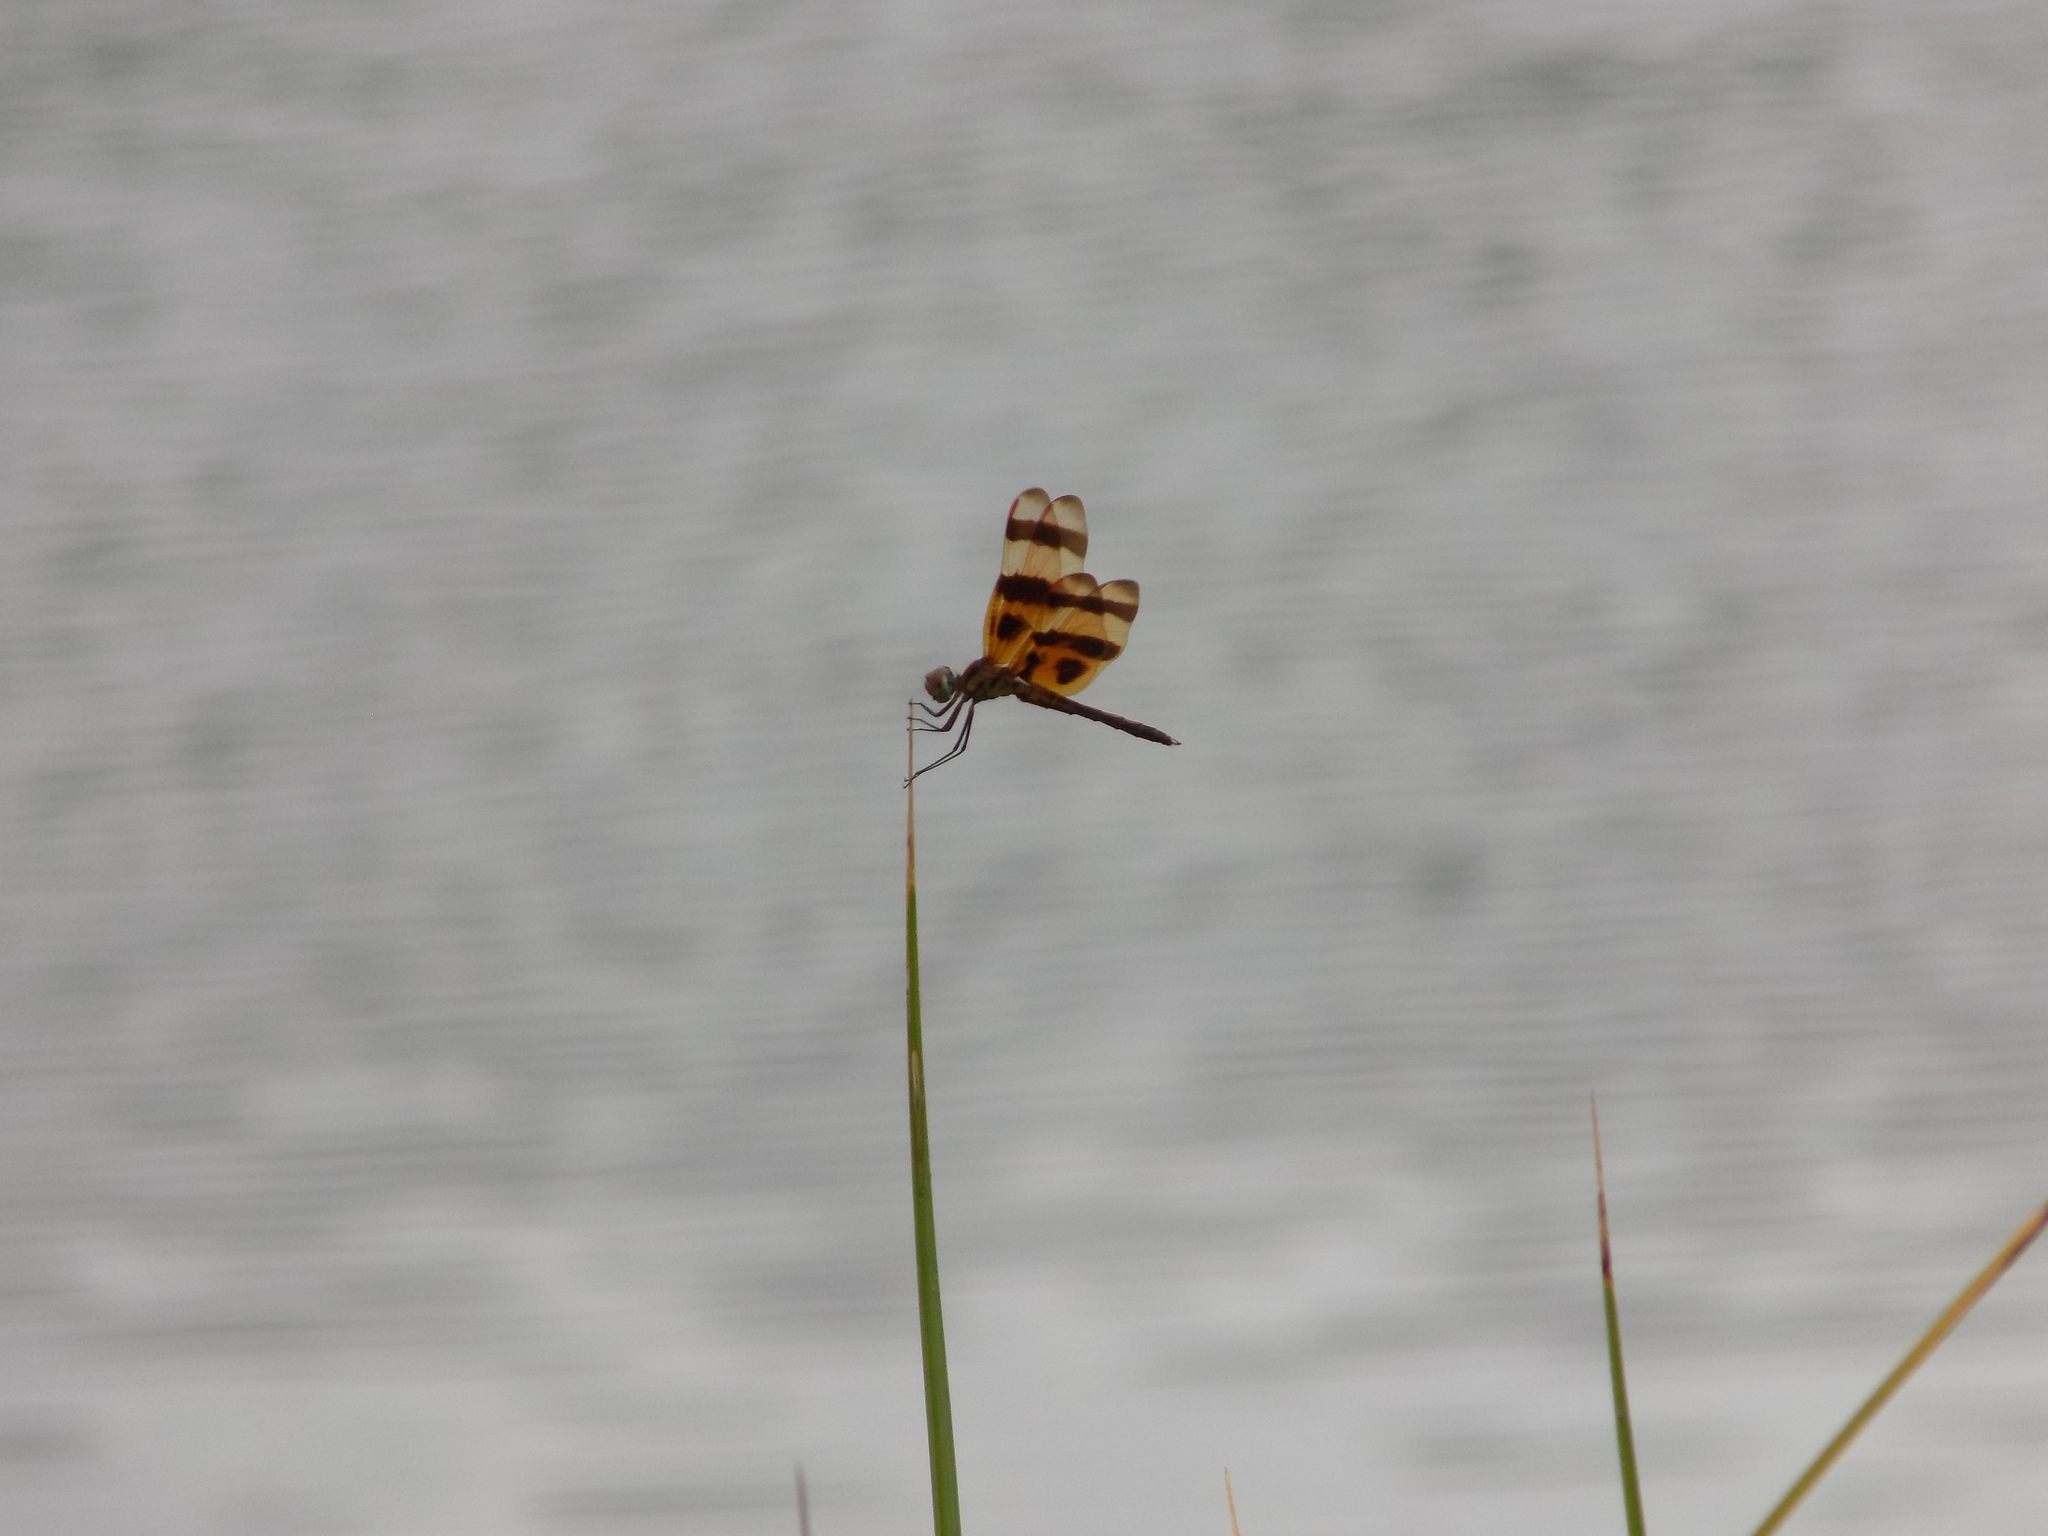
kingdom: Animalia
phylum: Arthropoda
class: Insecta
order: Odonata
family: Libellulidae
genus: Celithemis
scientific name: Celithemis eponina
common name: Halloween pennant
